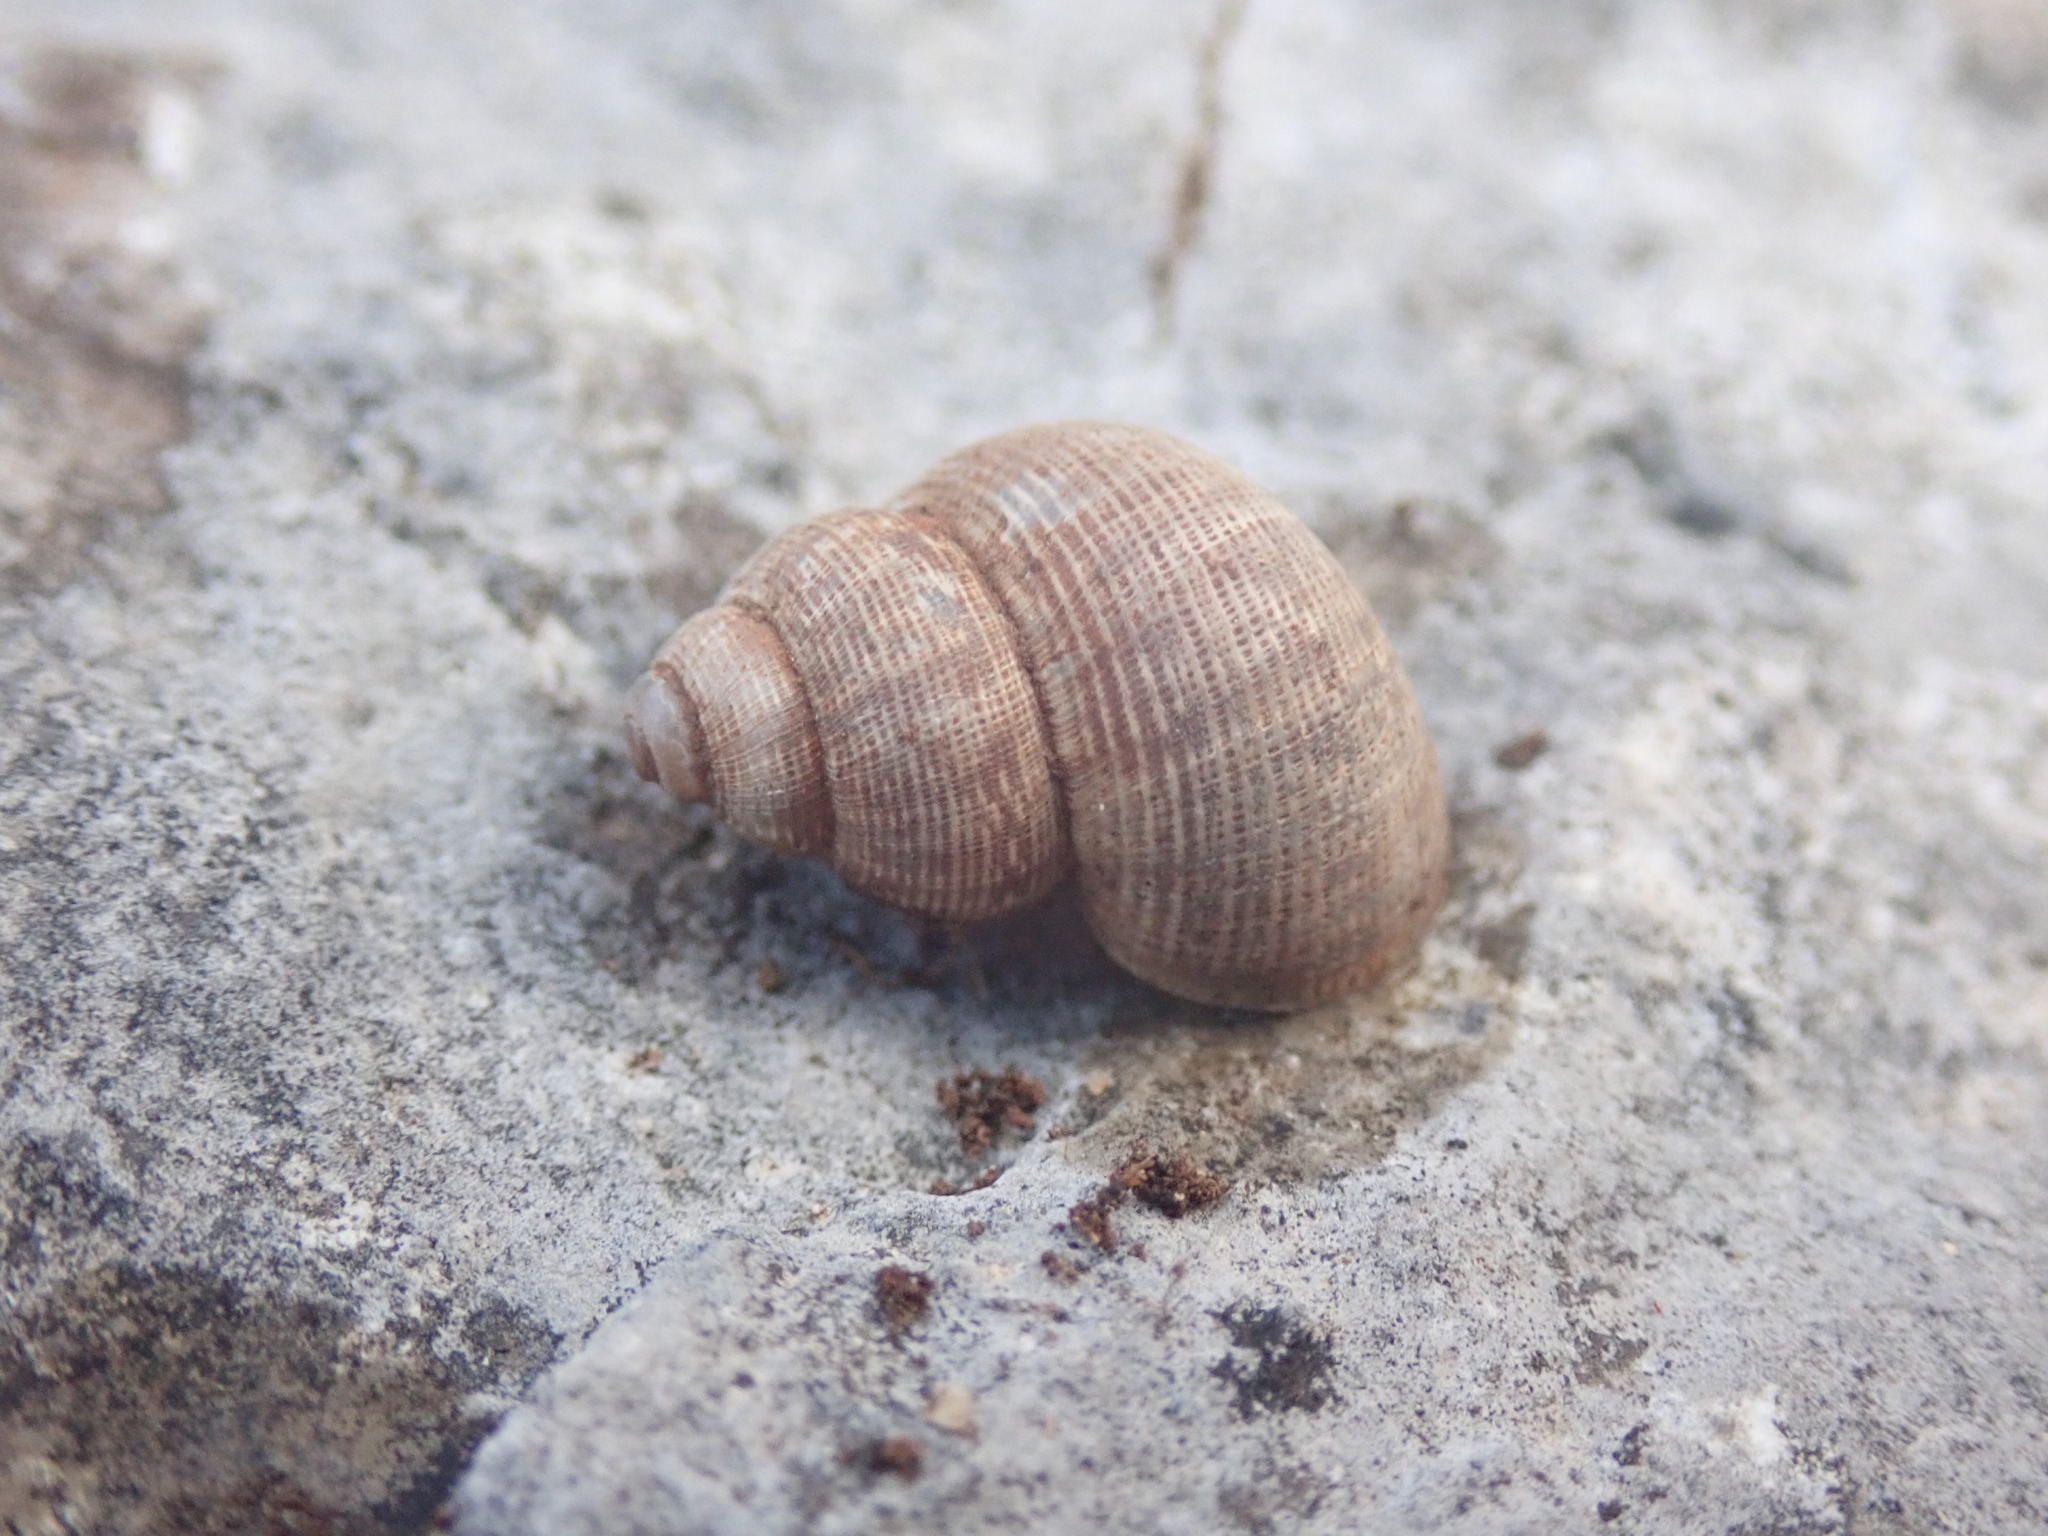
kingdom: Animalia
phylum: Mollusca
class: Gastropoda
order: Littorinimorpha
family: Pomatiidae
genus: Pomatias
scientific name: Pomatias elegans
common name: Red-mouthed snail
